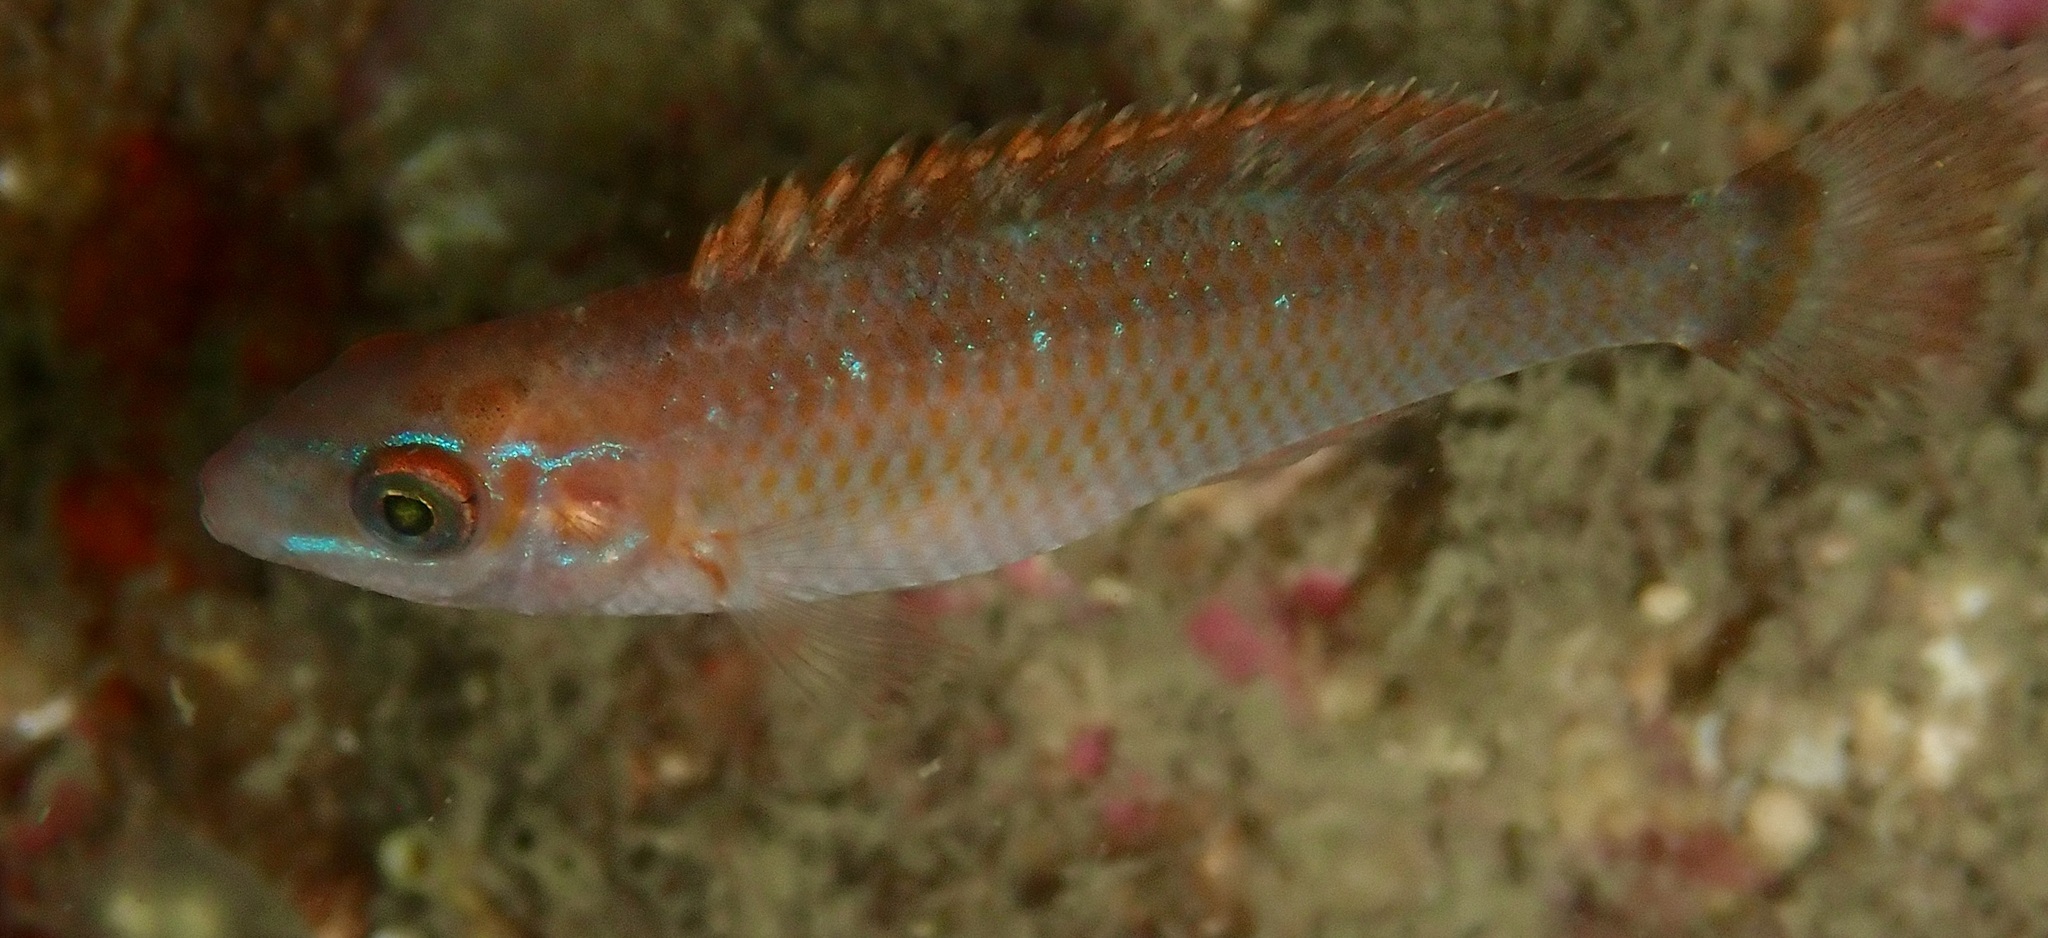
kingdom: Animalia
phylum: Chordata
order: Perciformes
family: Labridae
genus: Centrolabrus
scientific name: Centrolabrus exoletus
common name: Rock cook
